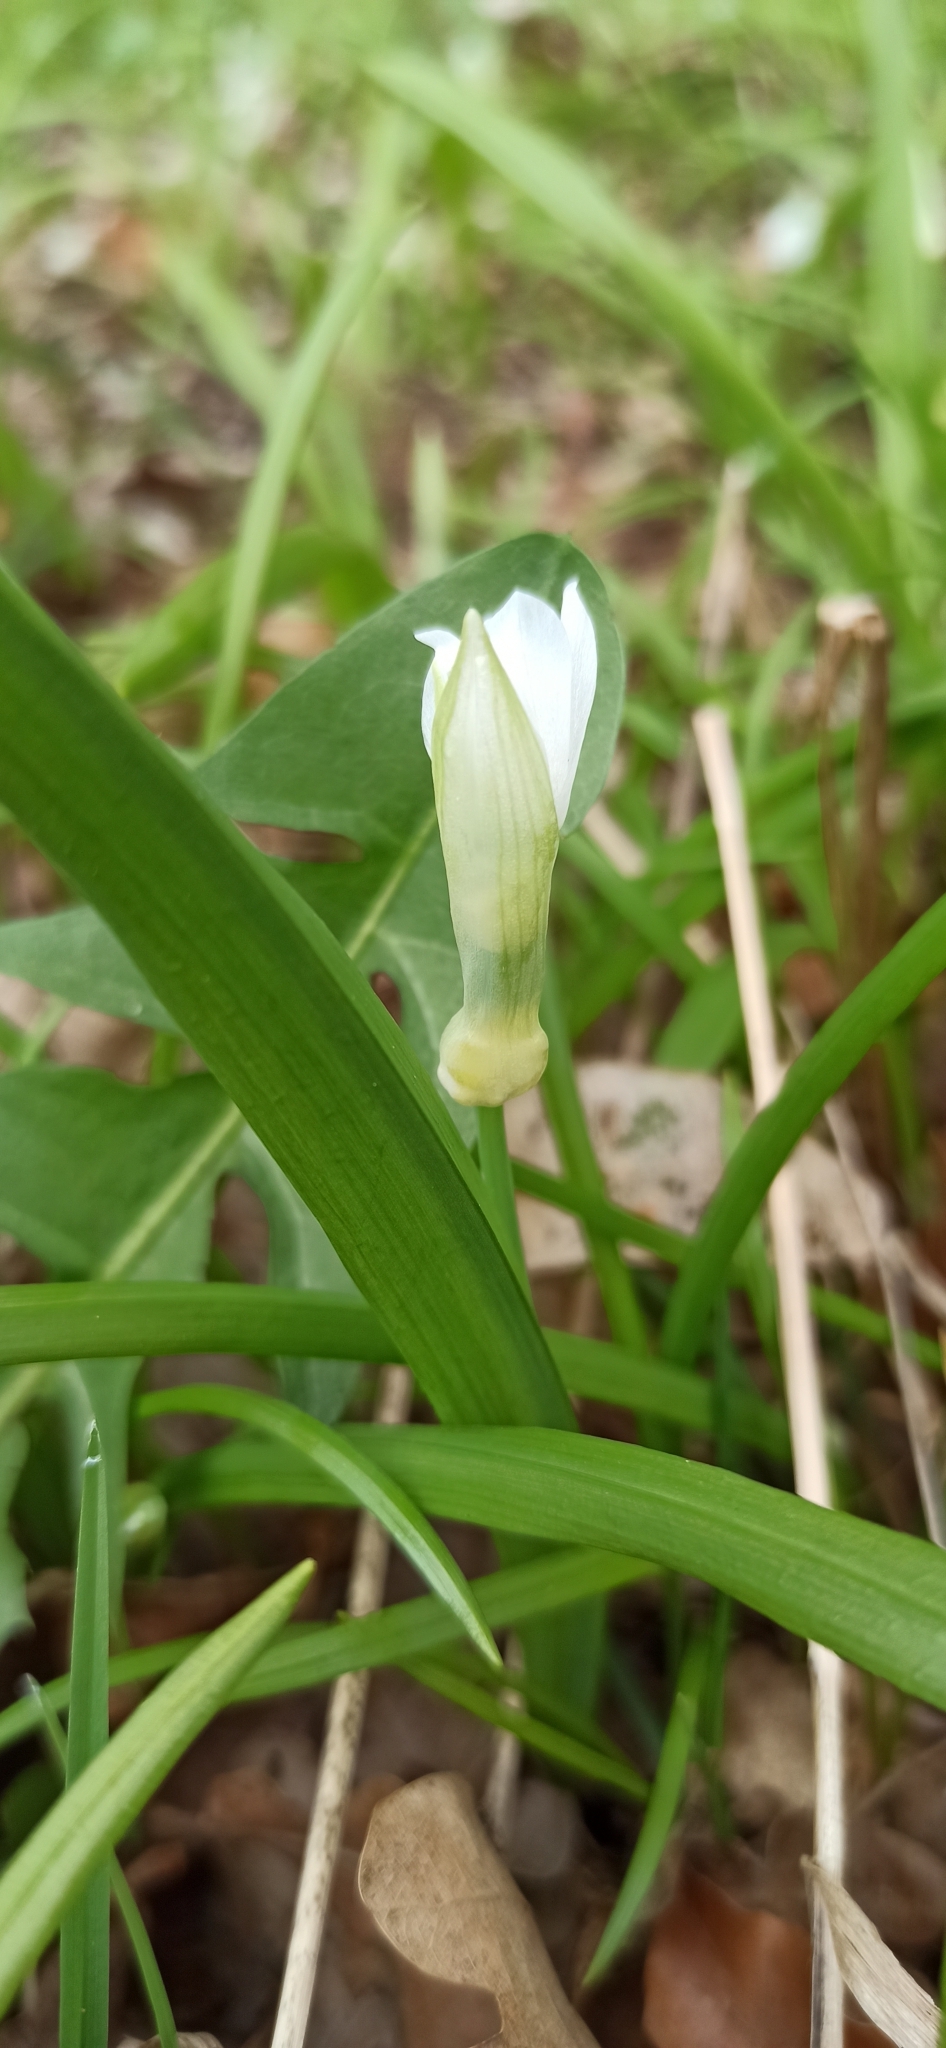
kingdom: Plantae
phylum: Tracheophyta
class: Liliopsida
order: Asparagales
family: Amaryllidaceae
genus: Allium
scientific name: Allium paradoxum
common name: Few-flowered garlic
